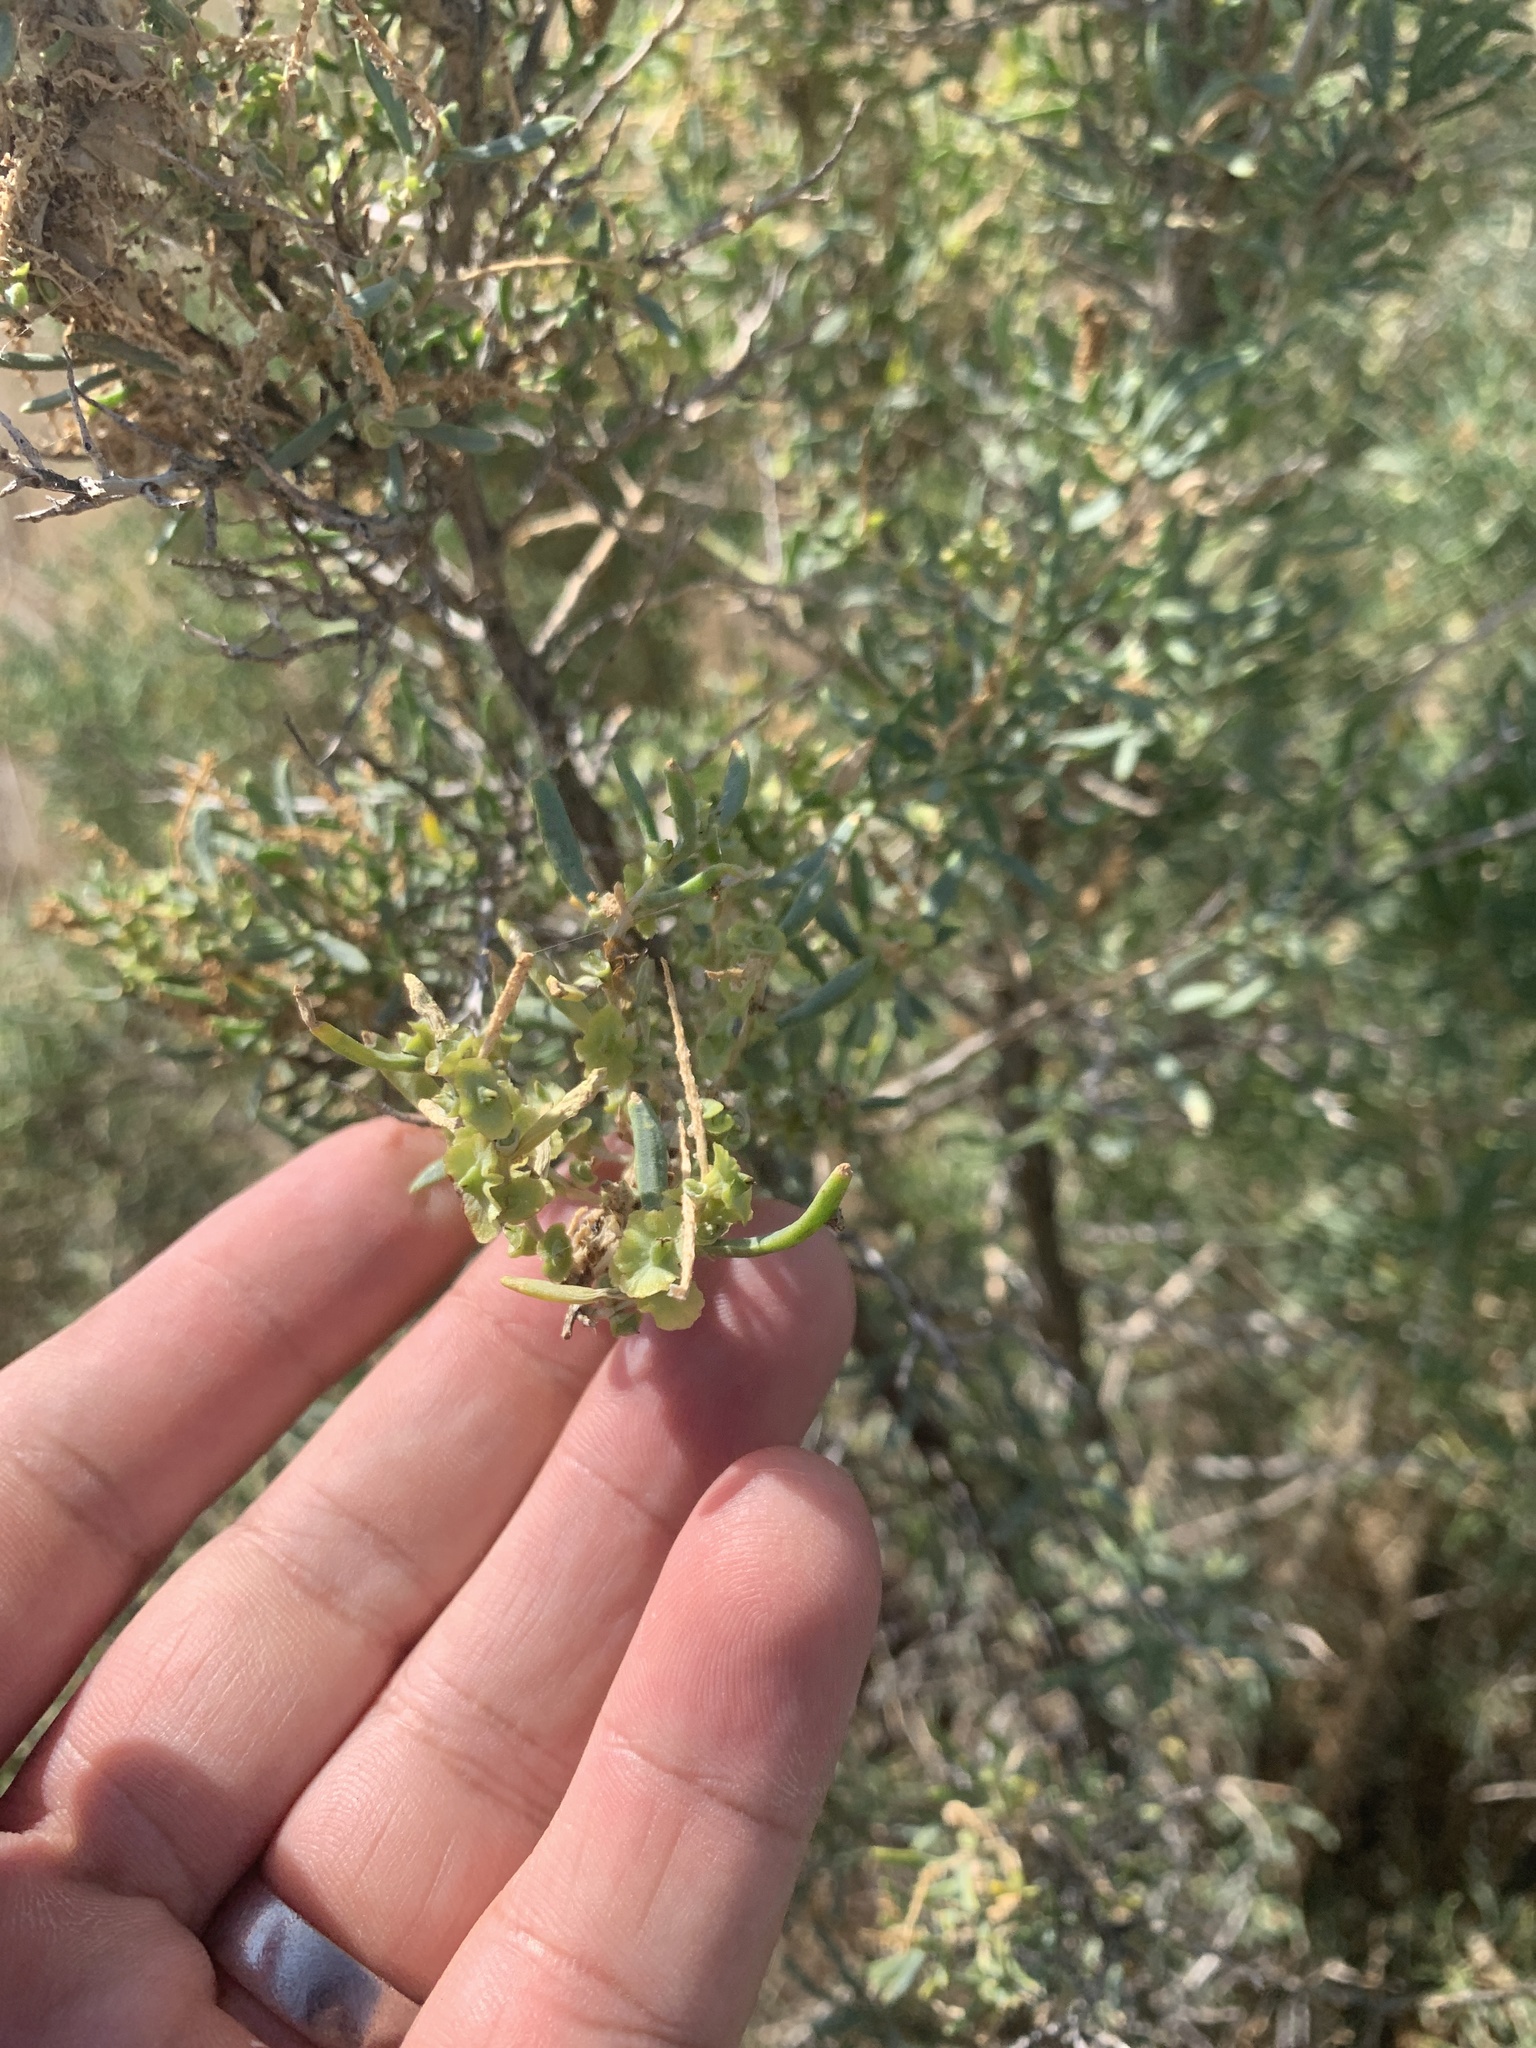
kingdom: Plantae
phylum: Tracheophyta
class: Magnoliopsida
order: Caryophyllales
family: Sarcobataceae
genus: Sarcobatus
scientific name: Sarcobatus vermiculatus
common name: Greasewood
